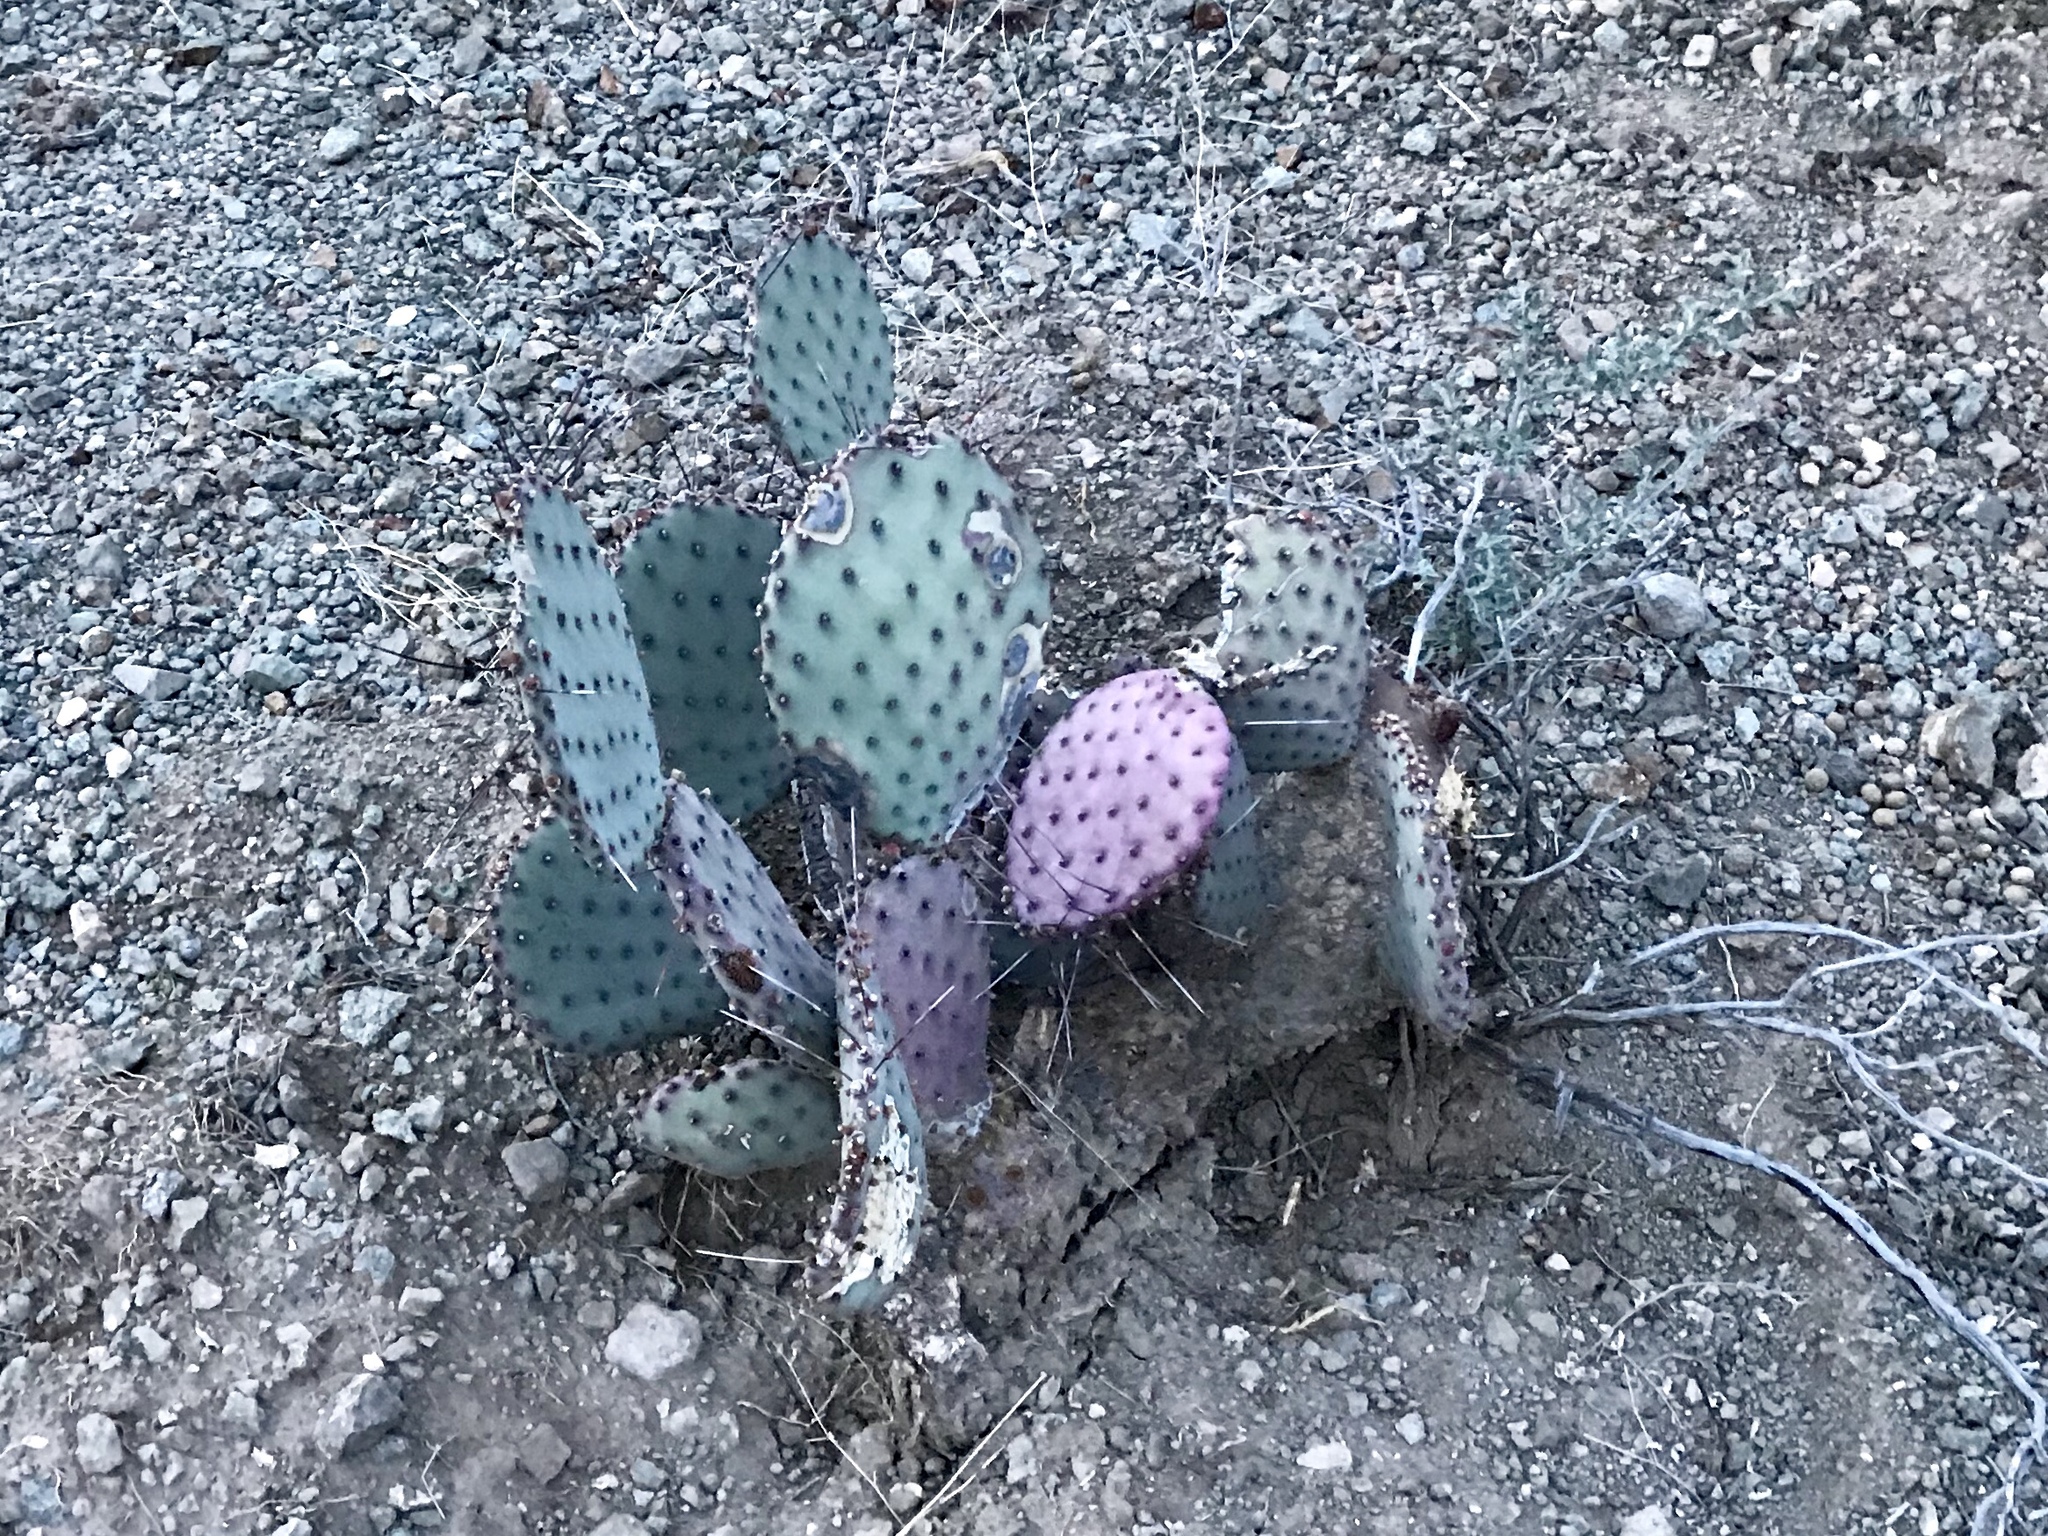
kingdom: Plantae
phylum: Tracheophyta
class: Magnoliopsida
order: Caryophyllales
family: Cactaceae
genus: Opuntia
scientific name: Opuntia macrocentra
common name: Purple prickly-pear
